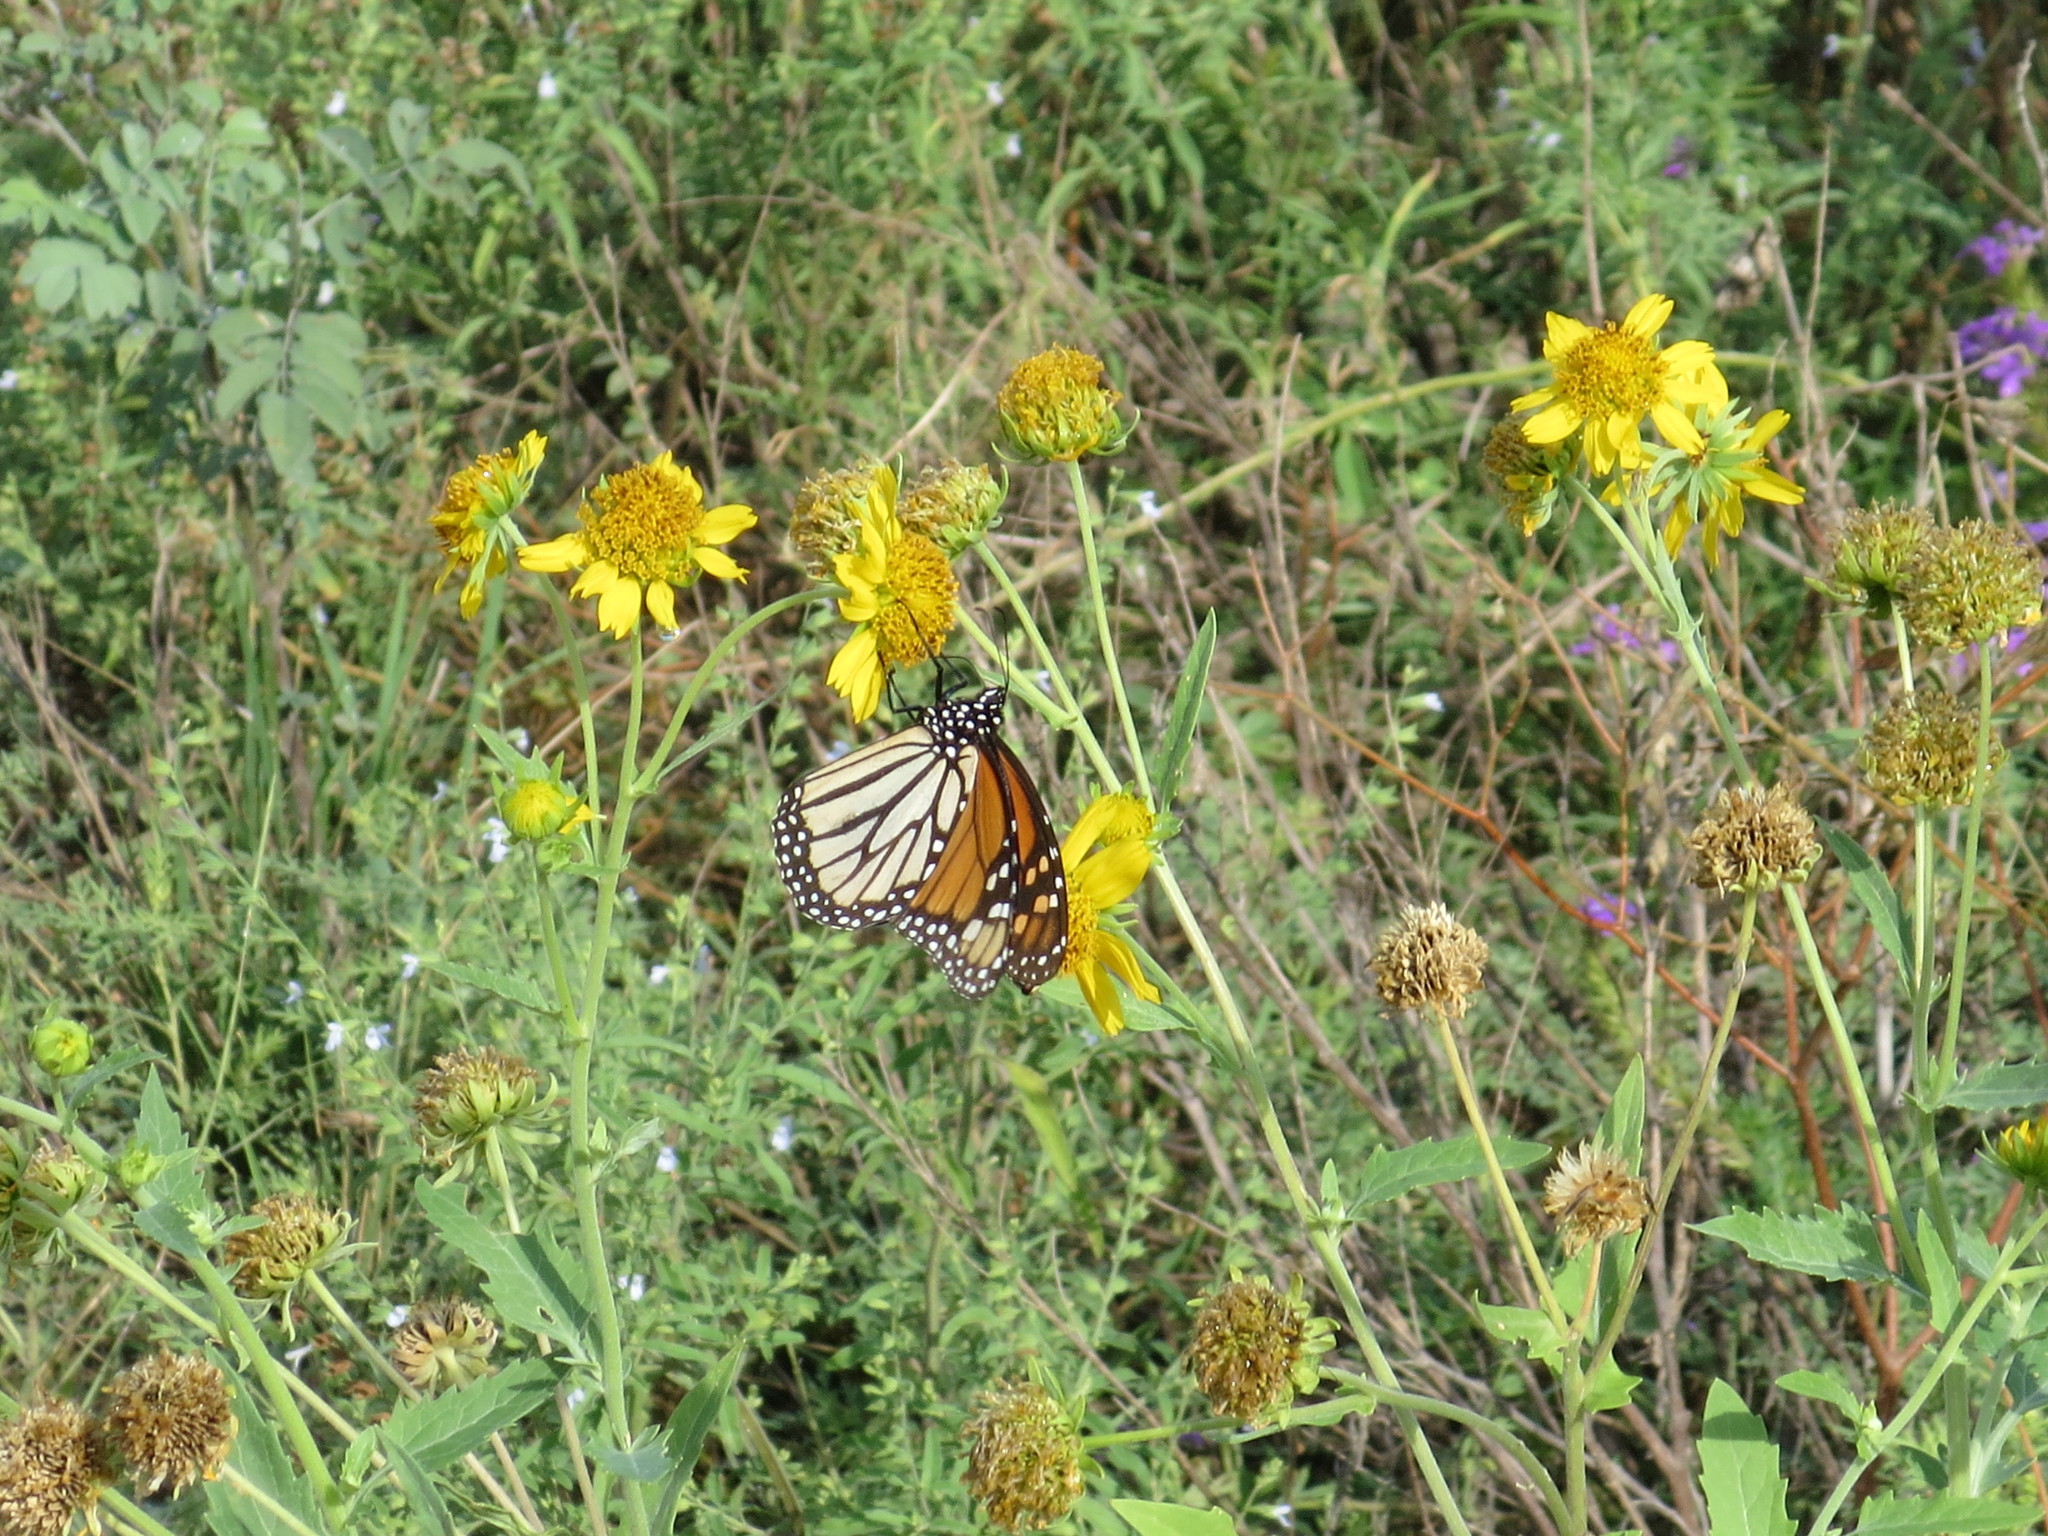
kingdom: Animalia
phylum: Arthropoda
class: Insecta
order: Lepidoptera
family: Nymphalidae
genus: Danaus
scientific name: Danaus plexippus
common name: Monarch
